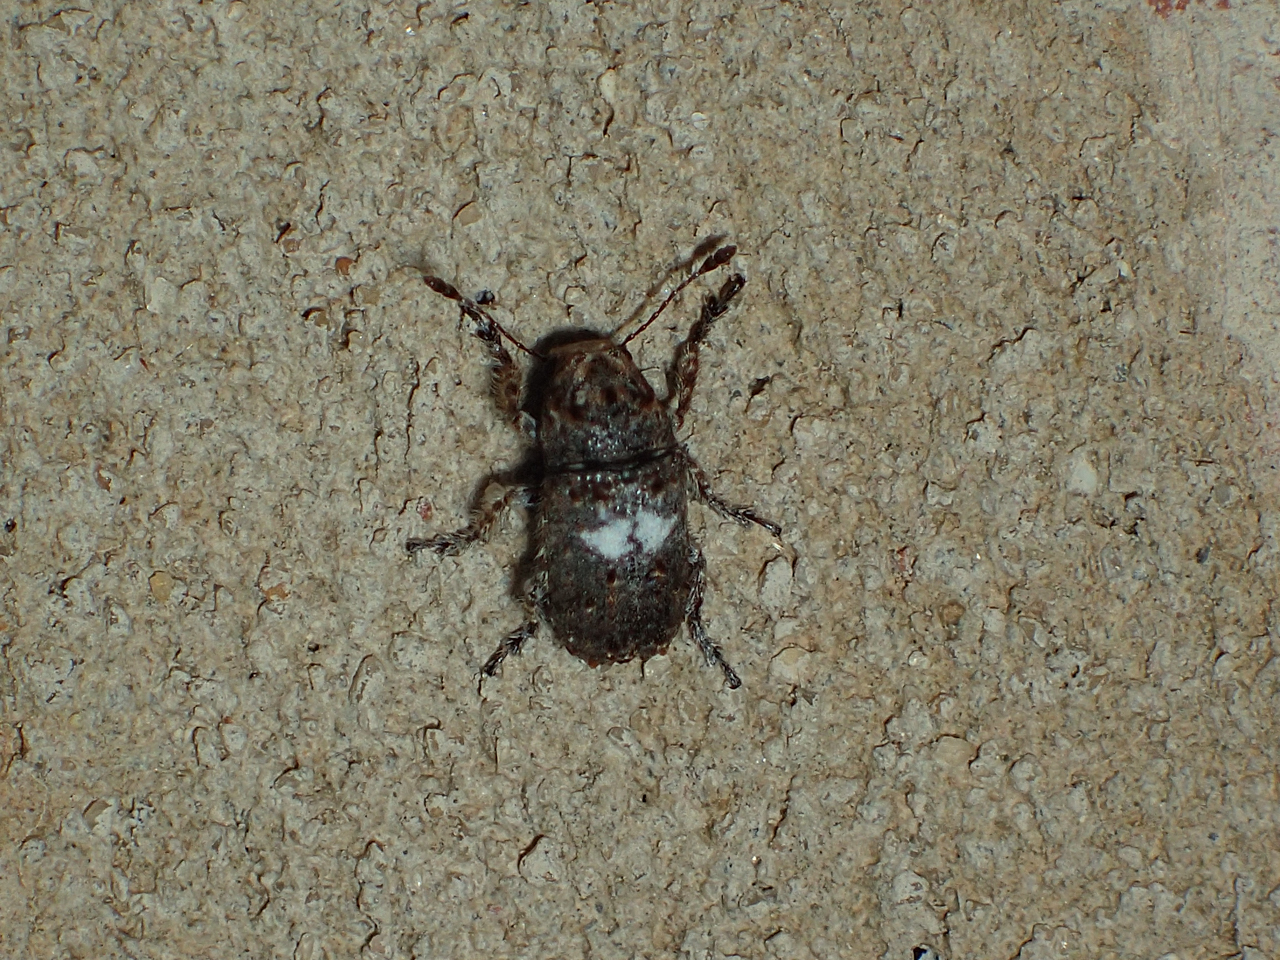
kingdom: Animalia
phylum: Arthropoda
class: Insecta
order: Coleoptera
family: Anthribidae
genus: Toxonotus
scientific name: Toxonotus cornutus
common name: Fungus weevil
